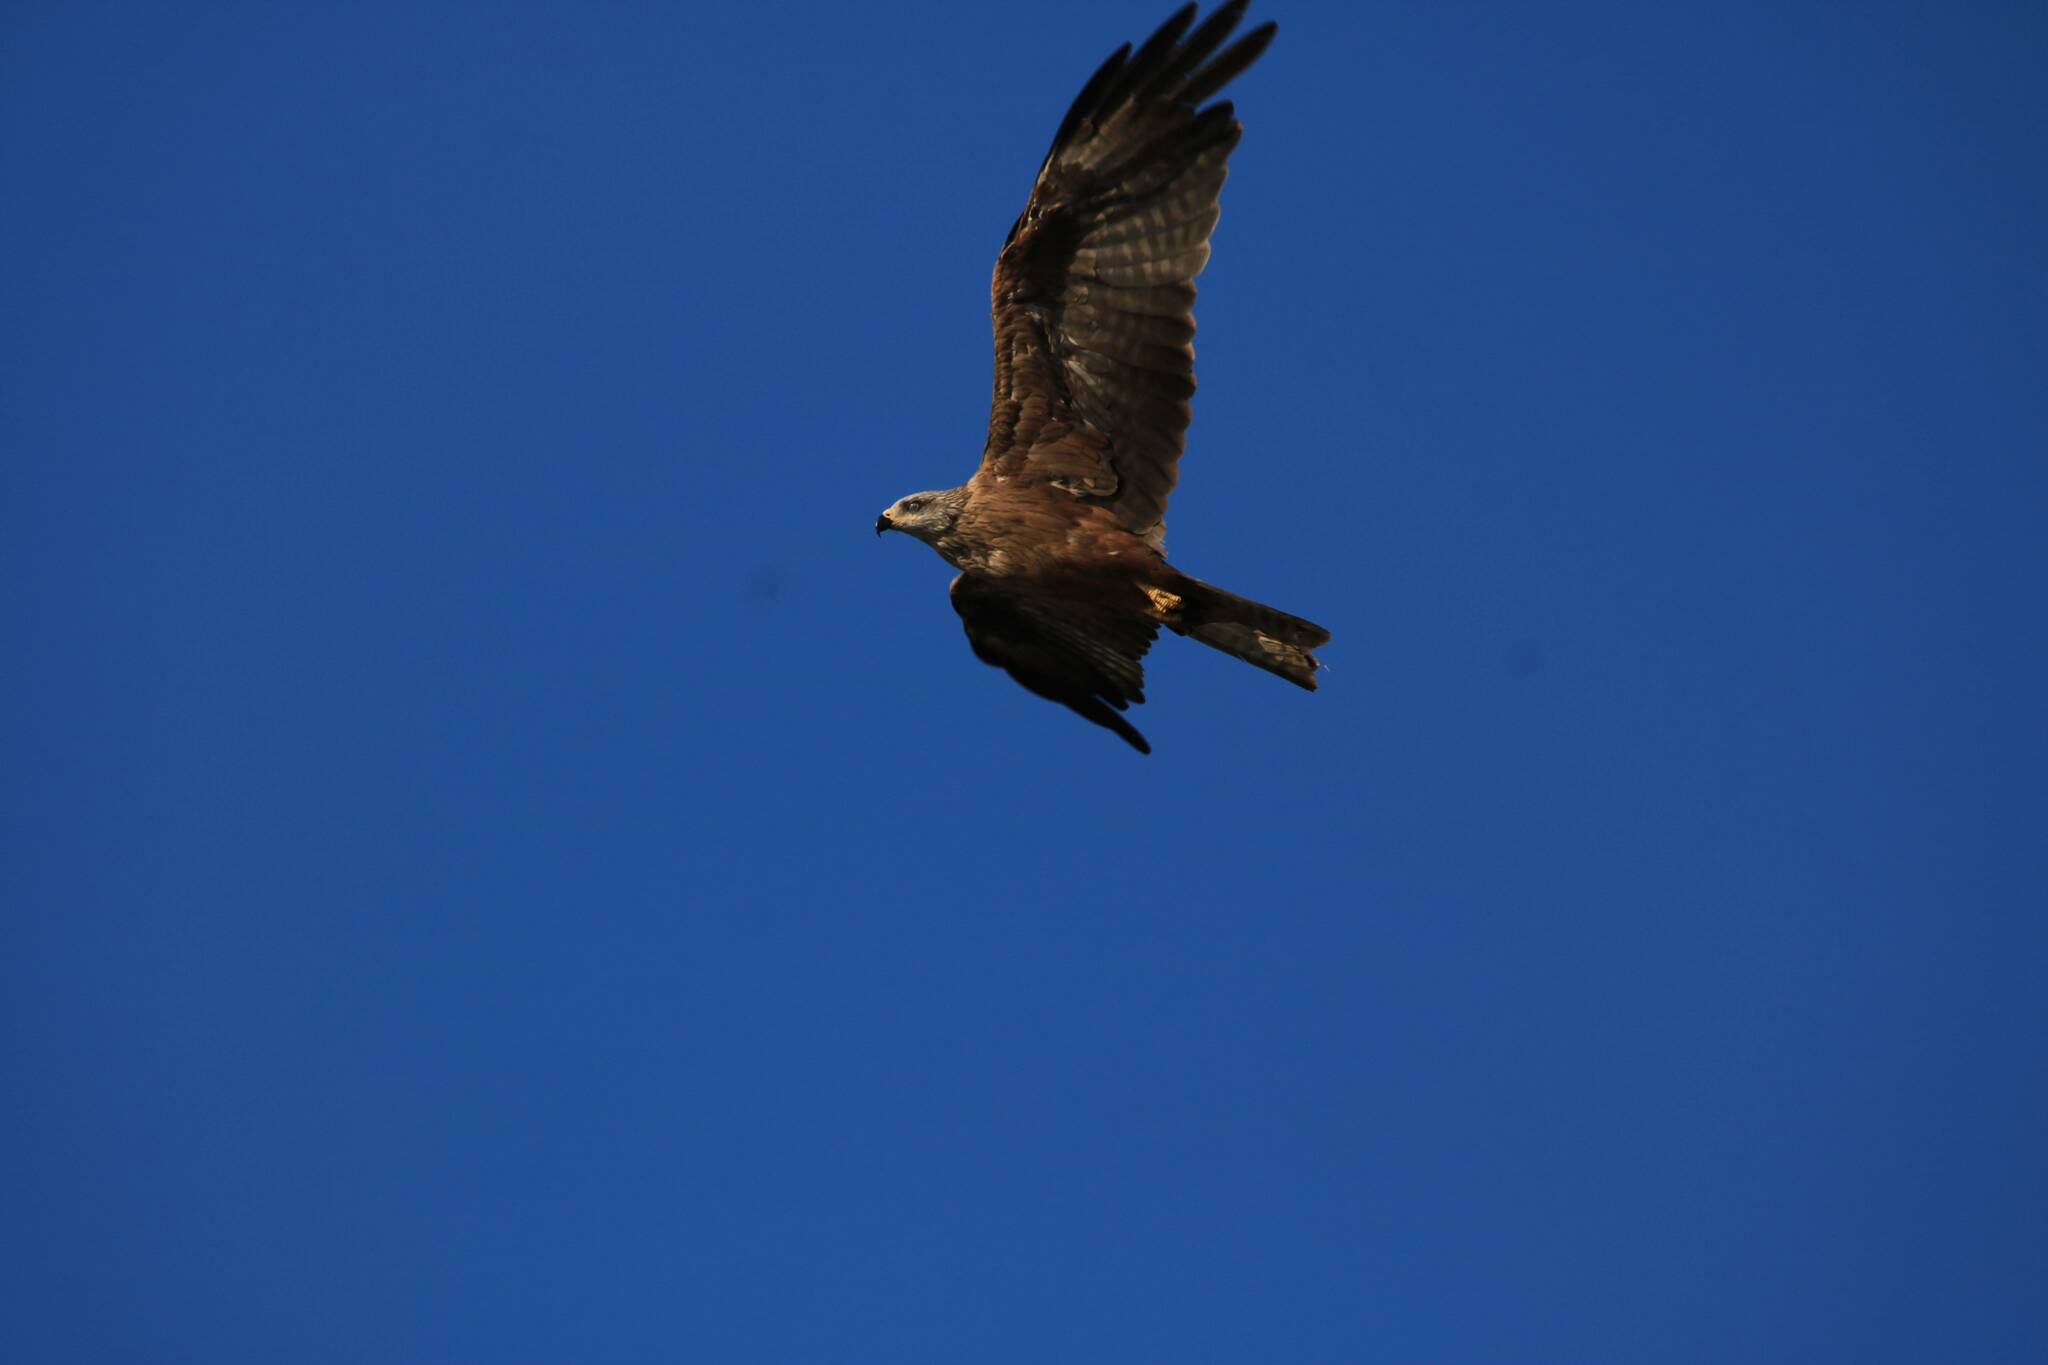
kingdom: Animalia
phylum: Chordata
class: Aves
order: Accipitriformes
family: Accipitridae
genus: Milvus
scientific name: Milvus migrans
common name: Black kite
